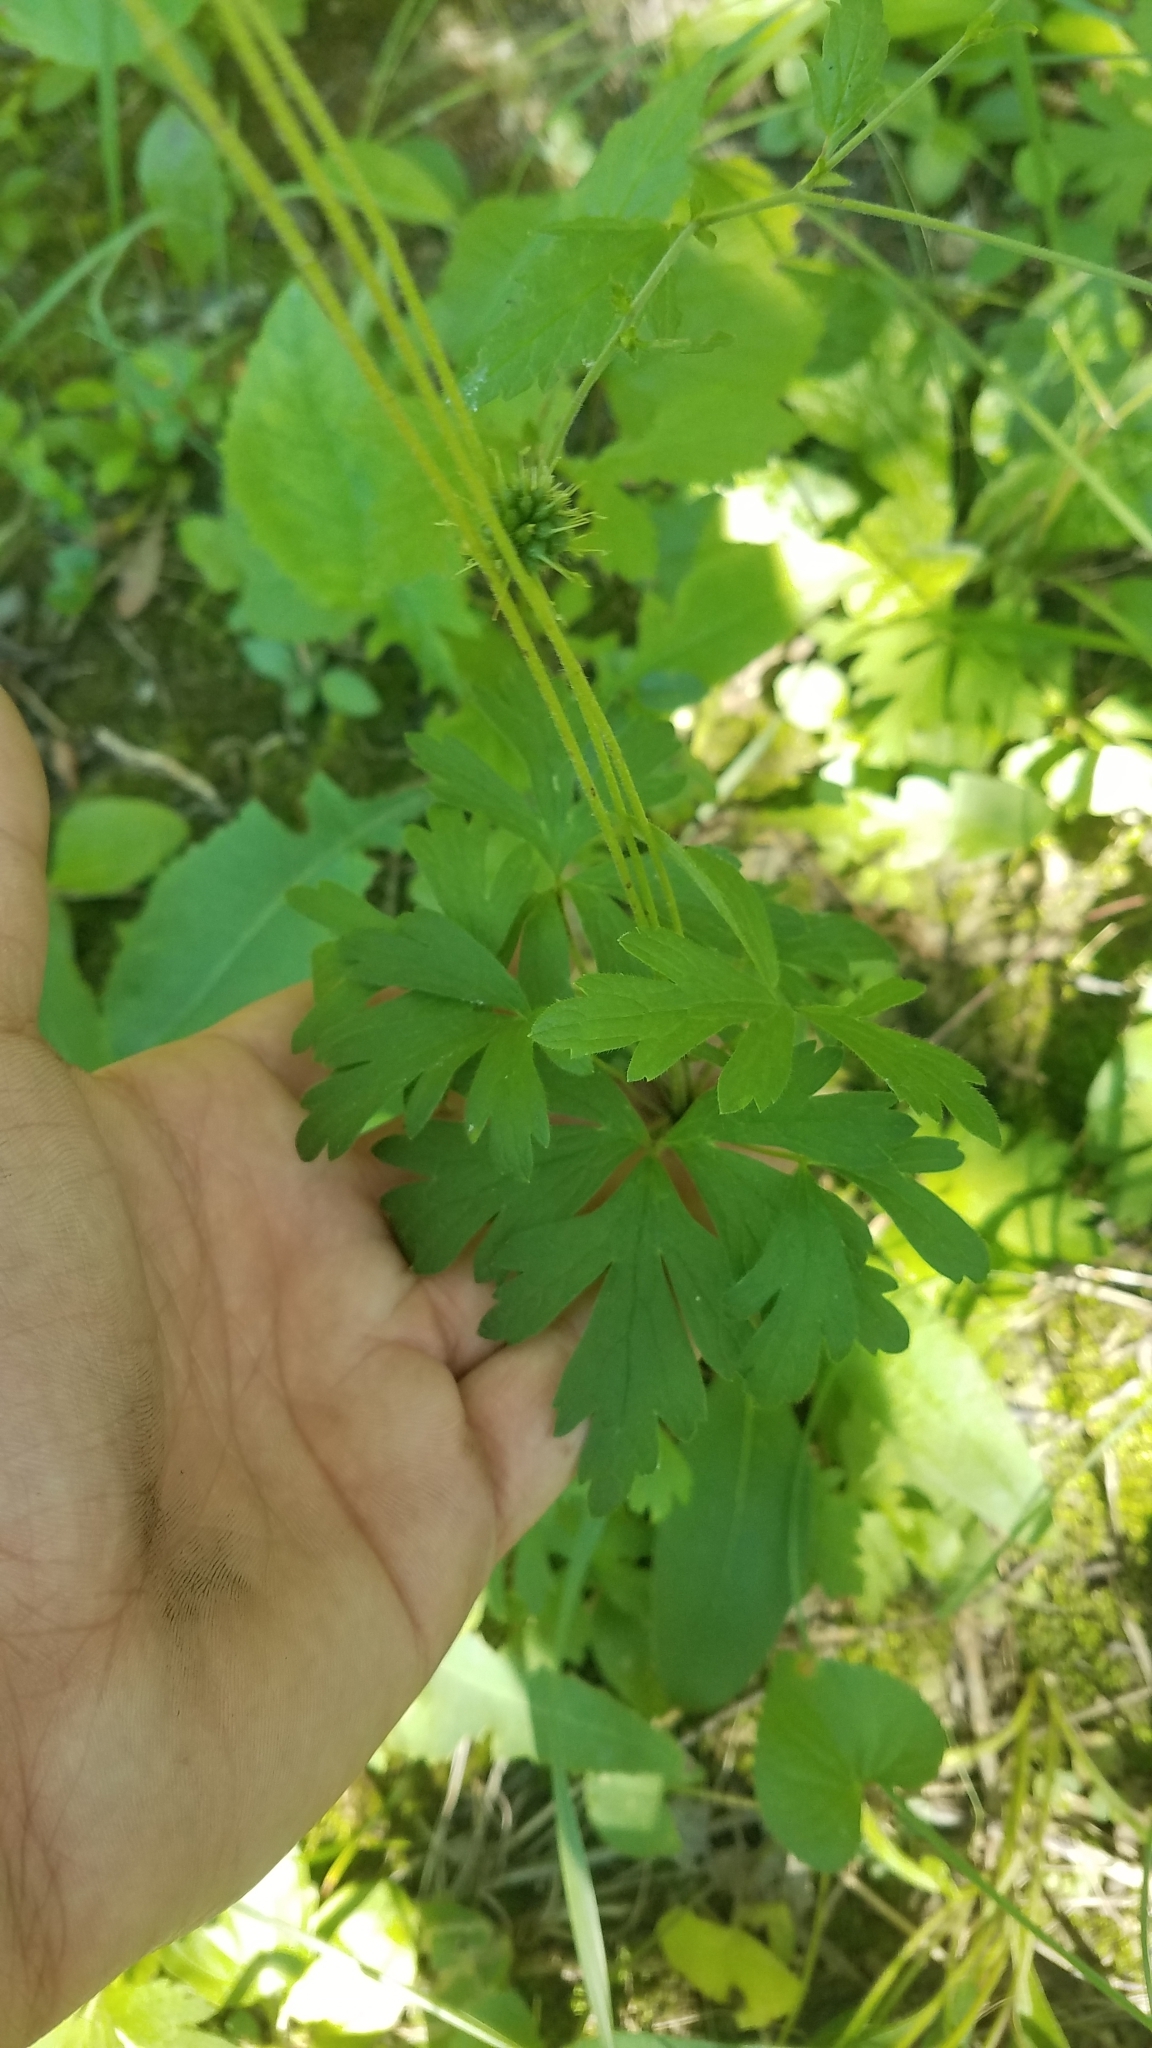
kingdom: Plantae
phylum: Tracheophyta
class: Magnoliopsida
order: Ranunculales
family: Ranunculaceae
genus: Anemone
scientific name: Anemone cylindrica
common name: Candle anemone
